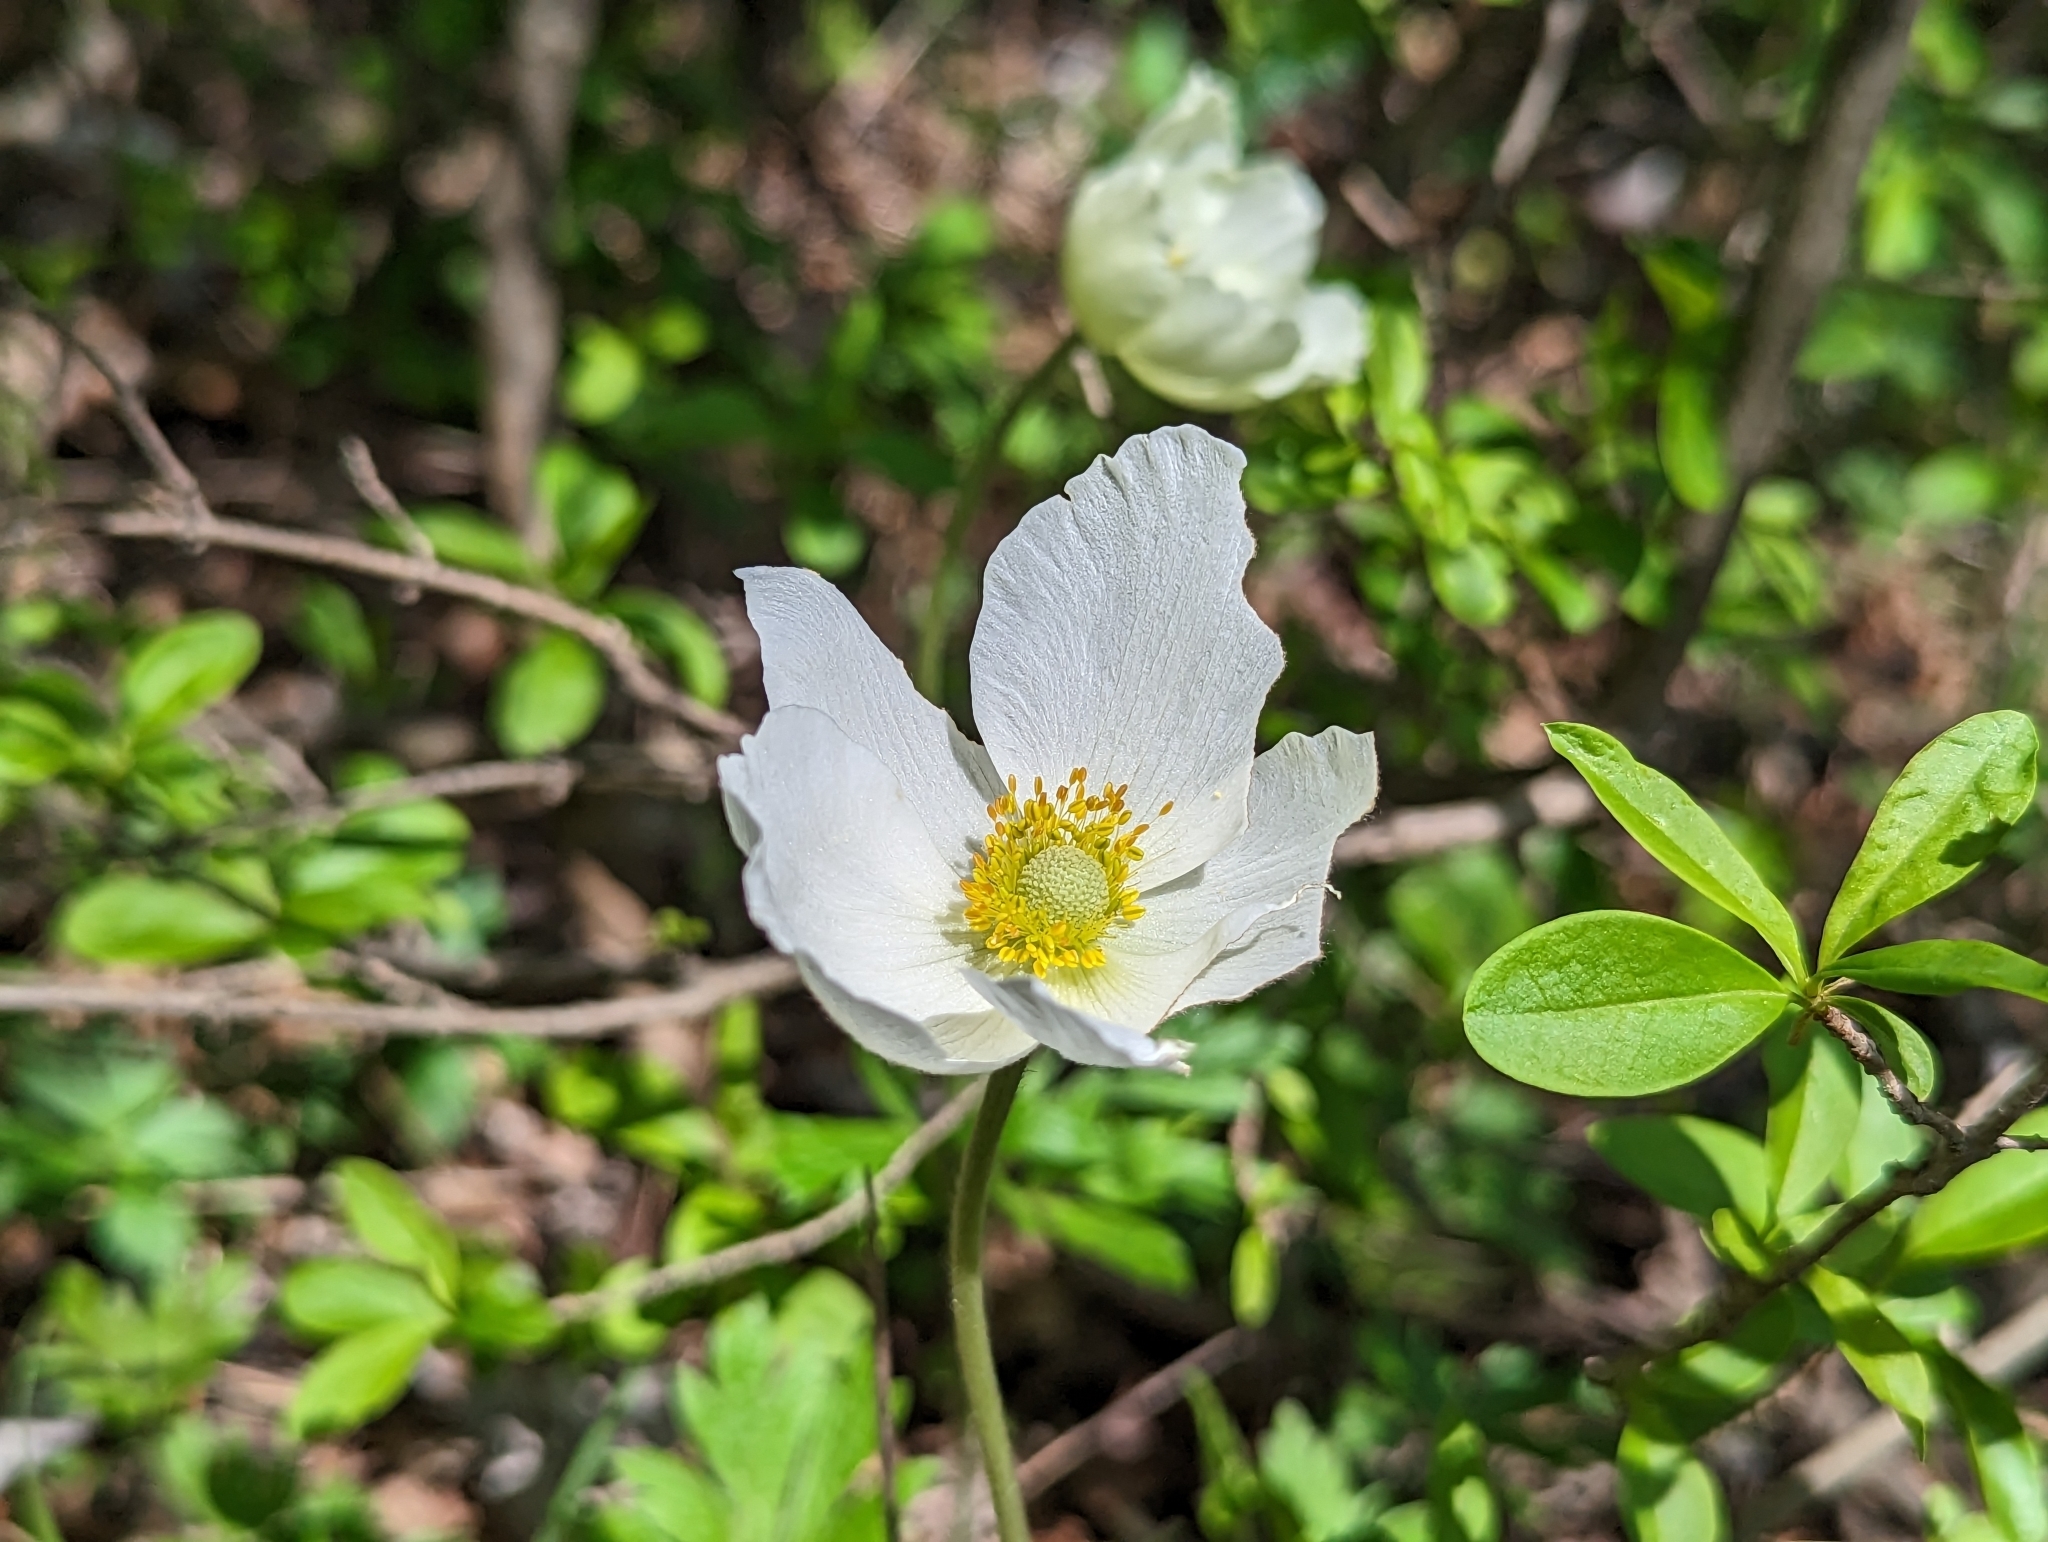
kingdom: Plantae
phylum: Tracheophyta
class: Magnoliopsida
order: Ranunculales
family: Ranunculaceae
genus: Anemone
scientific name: Anemone sylvestris
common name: Snowdrop anemone
